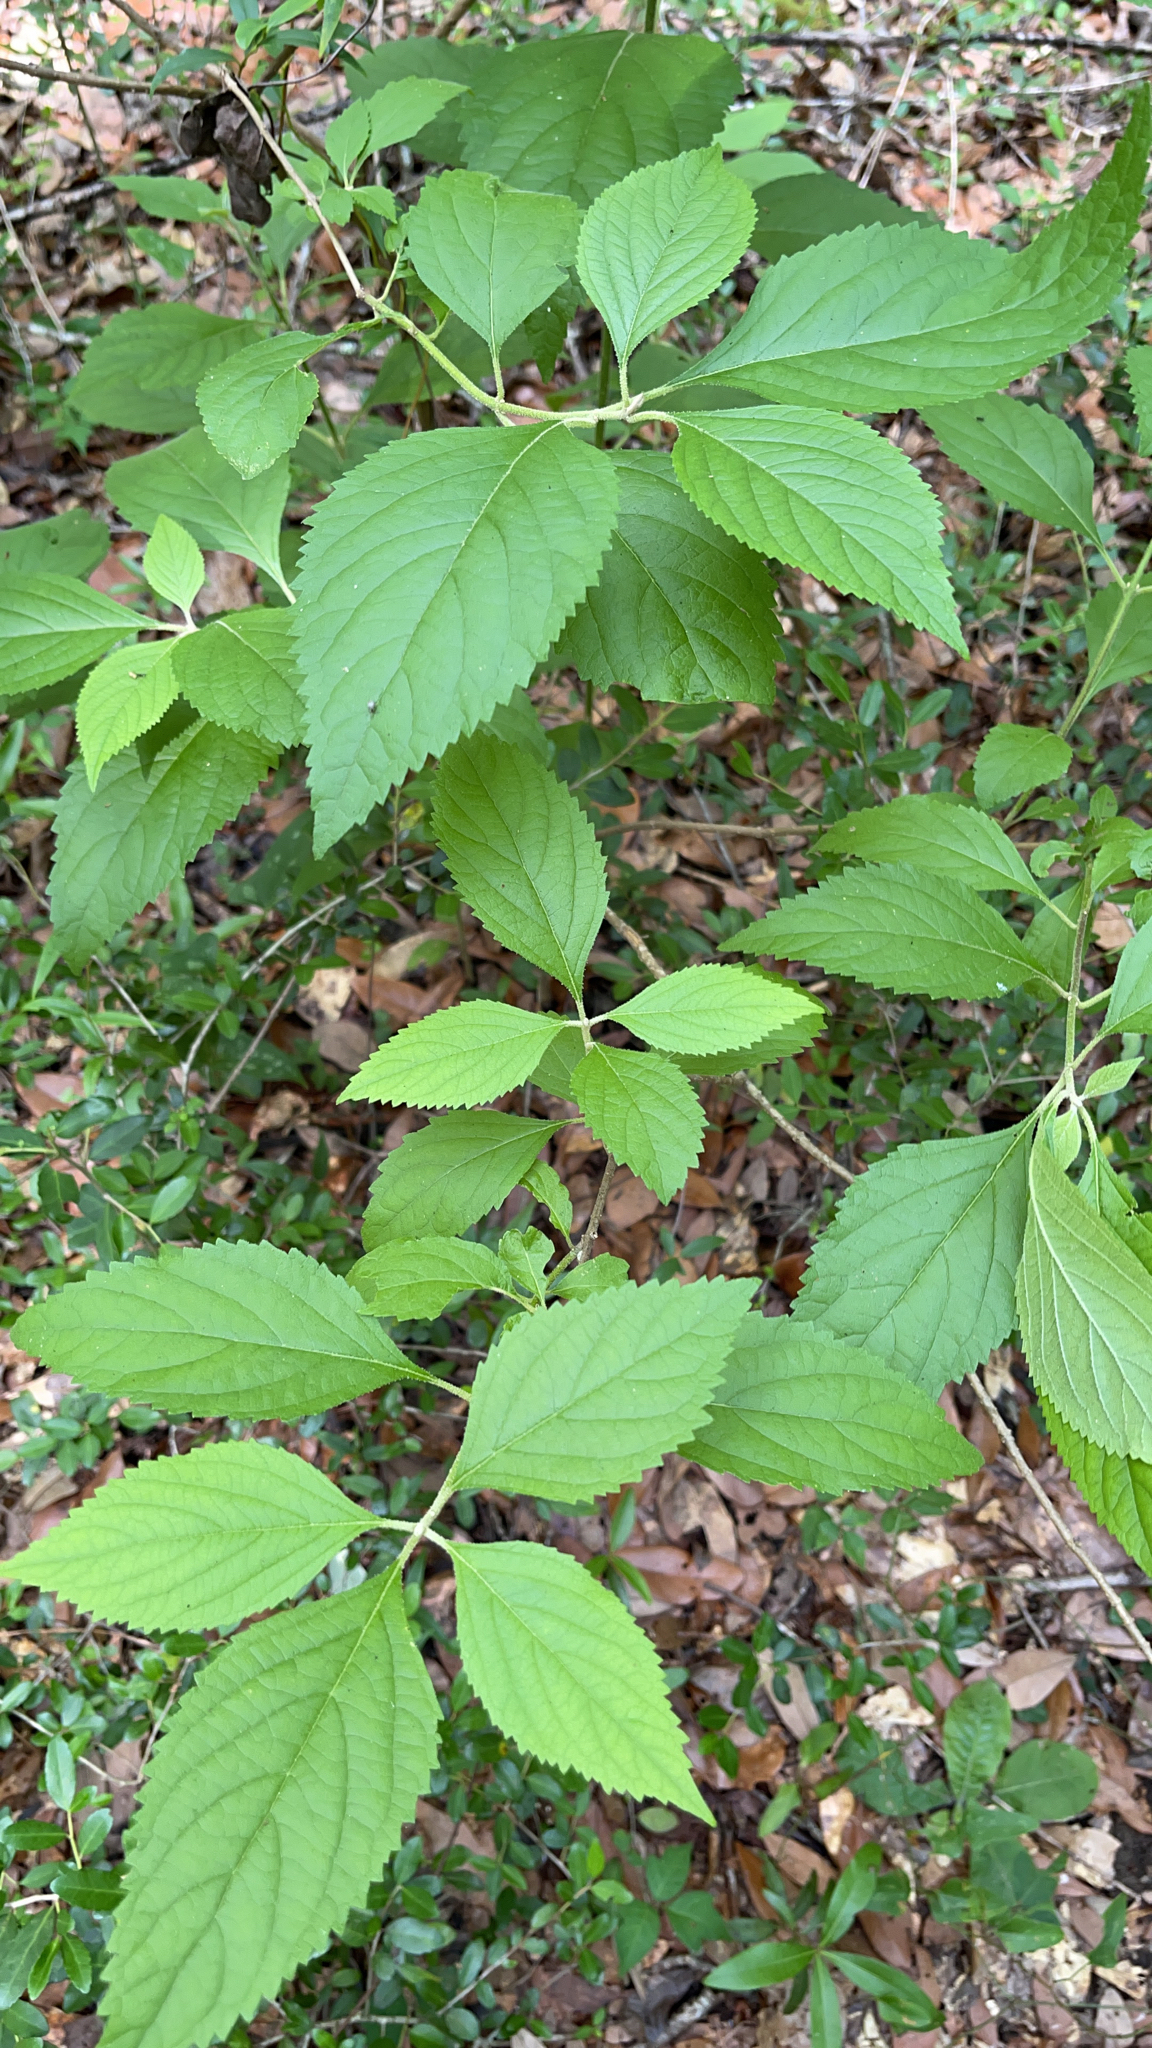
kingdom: Plantae
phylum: Tracheophyta
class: Magnoliopsida
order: Lamiales
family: Lamiaceae
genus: Callicarpa
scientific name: Callicarpa americana
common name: American beautyberry
